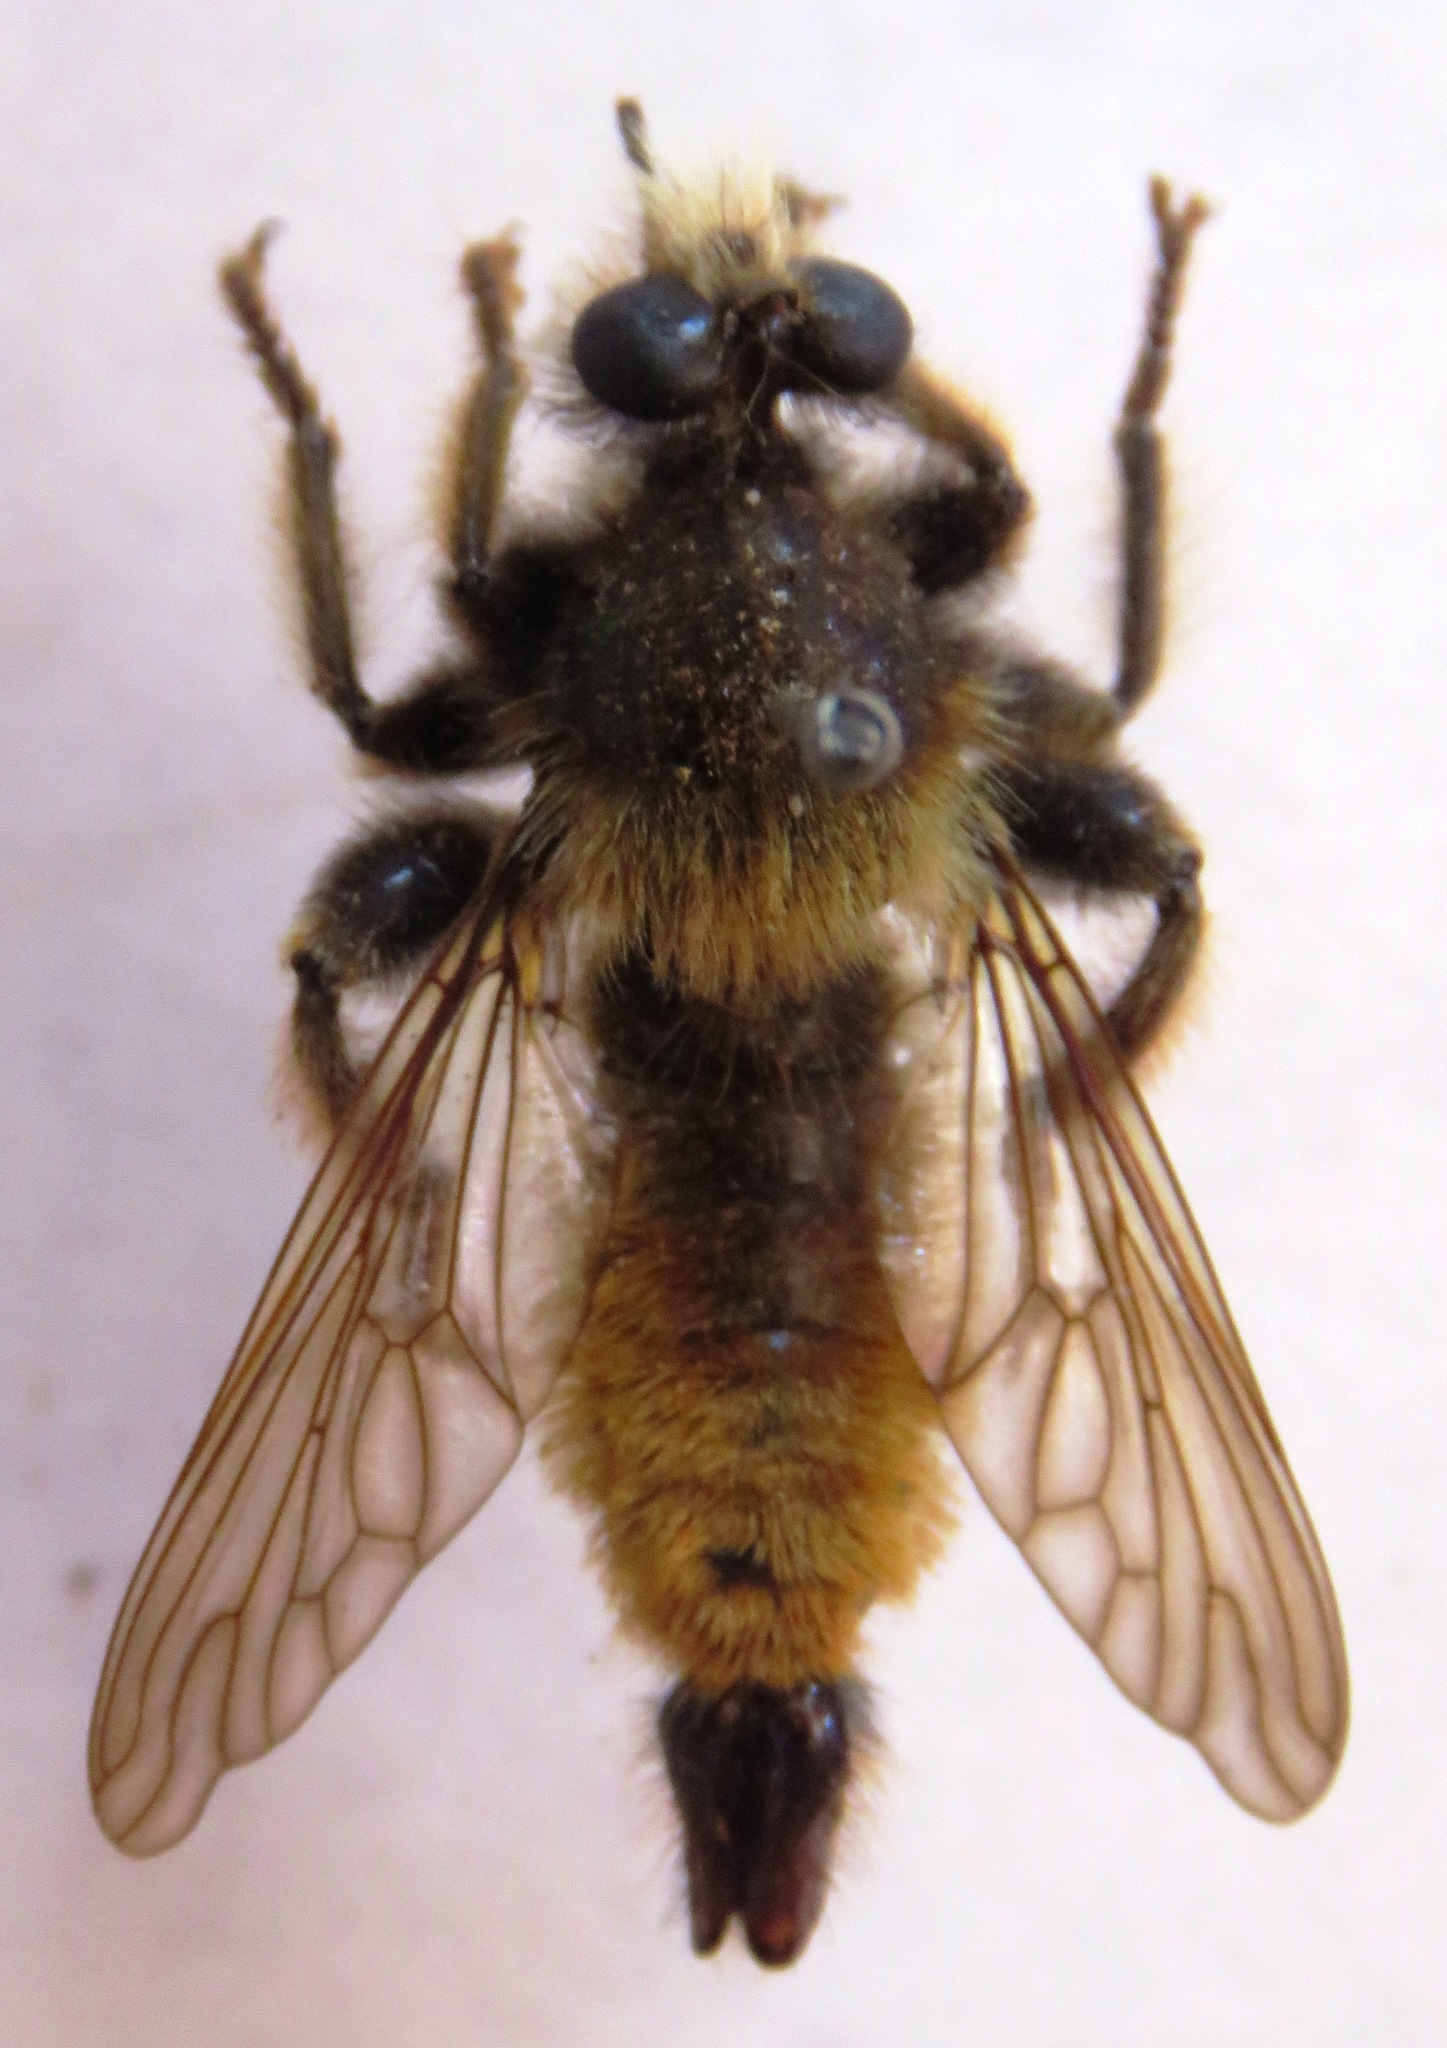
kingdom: Animalia
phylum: Arthropoda
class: Insecta
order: Diptera
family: Asilidae
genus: Laphria
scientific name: Laphria flava
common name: Bumblebee robberfly
